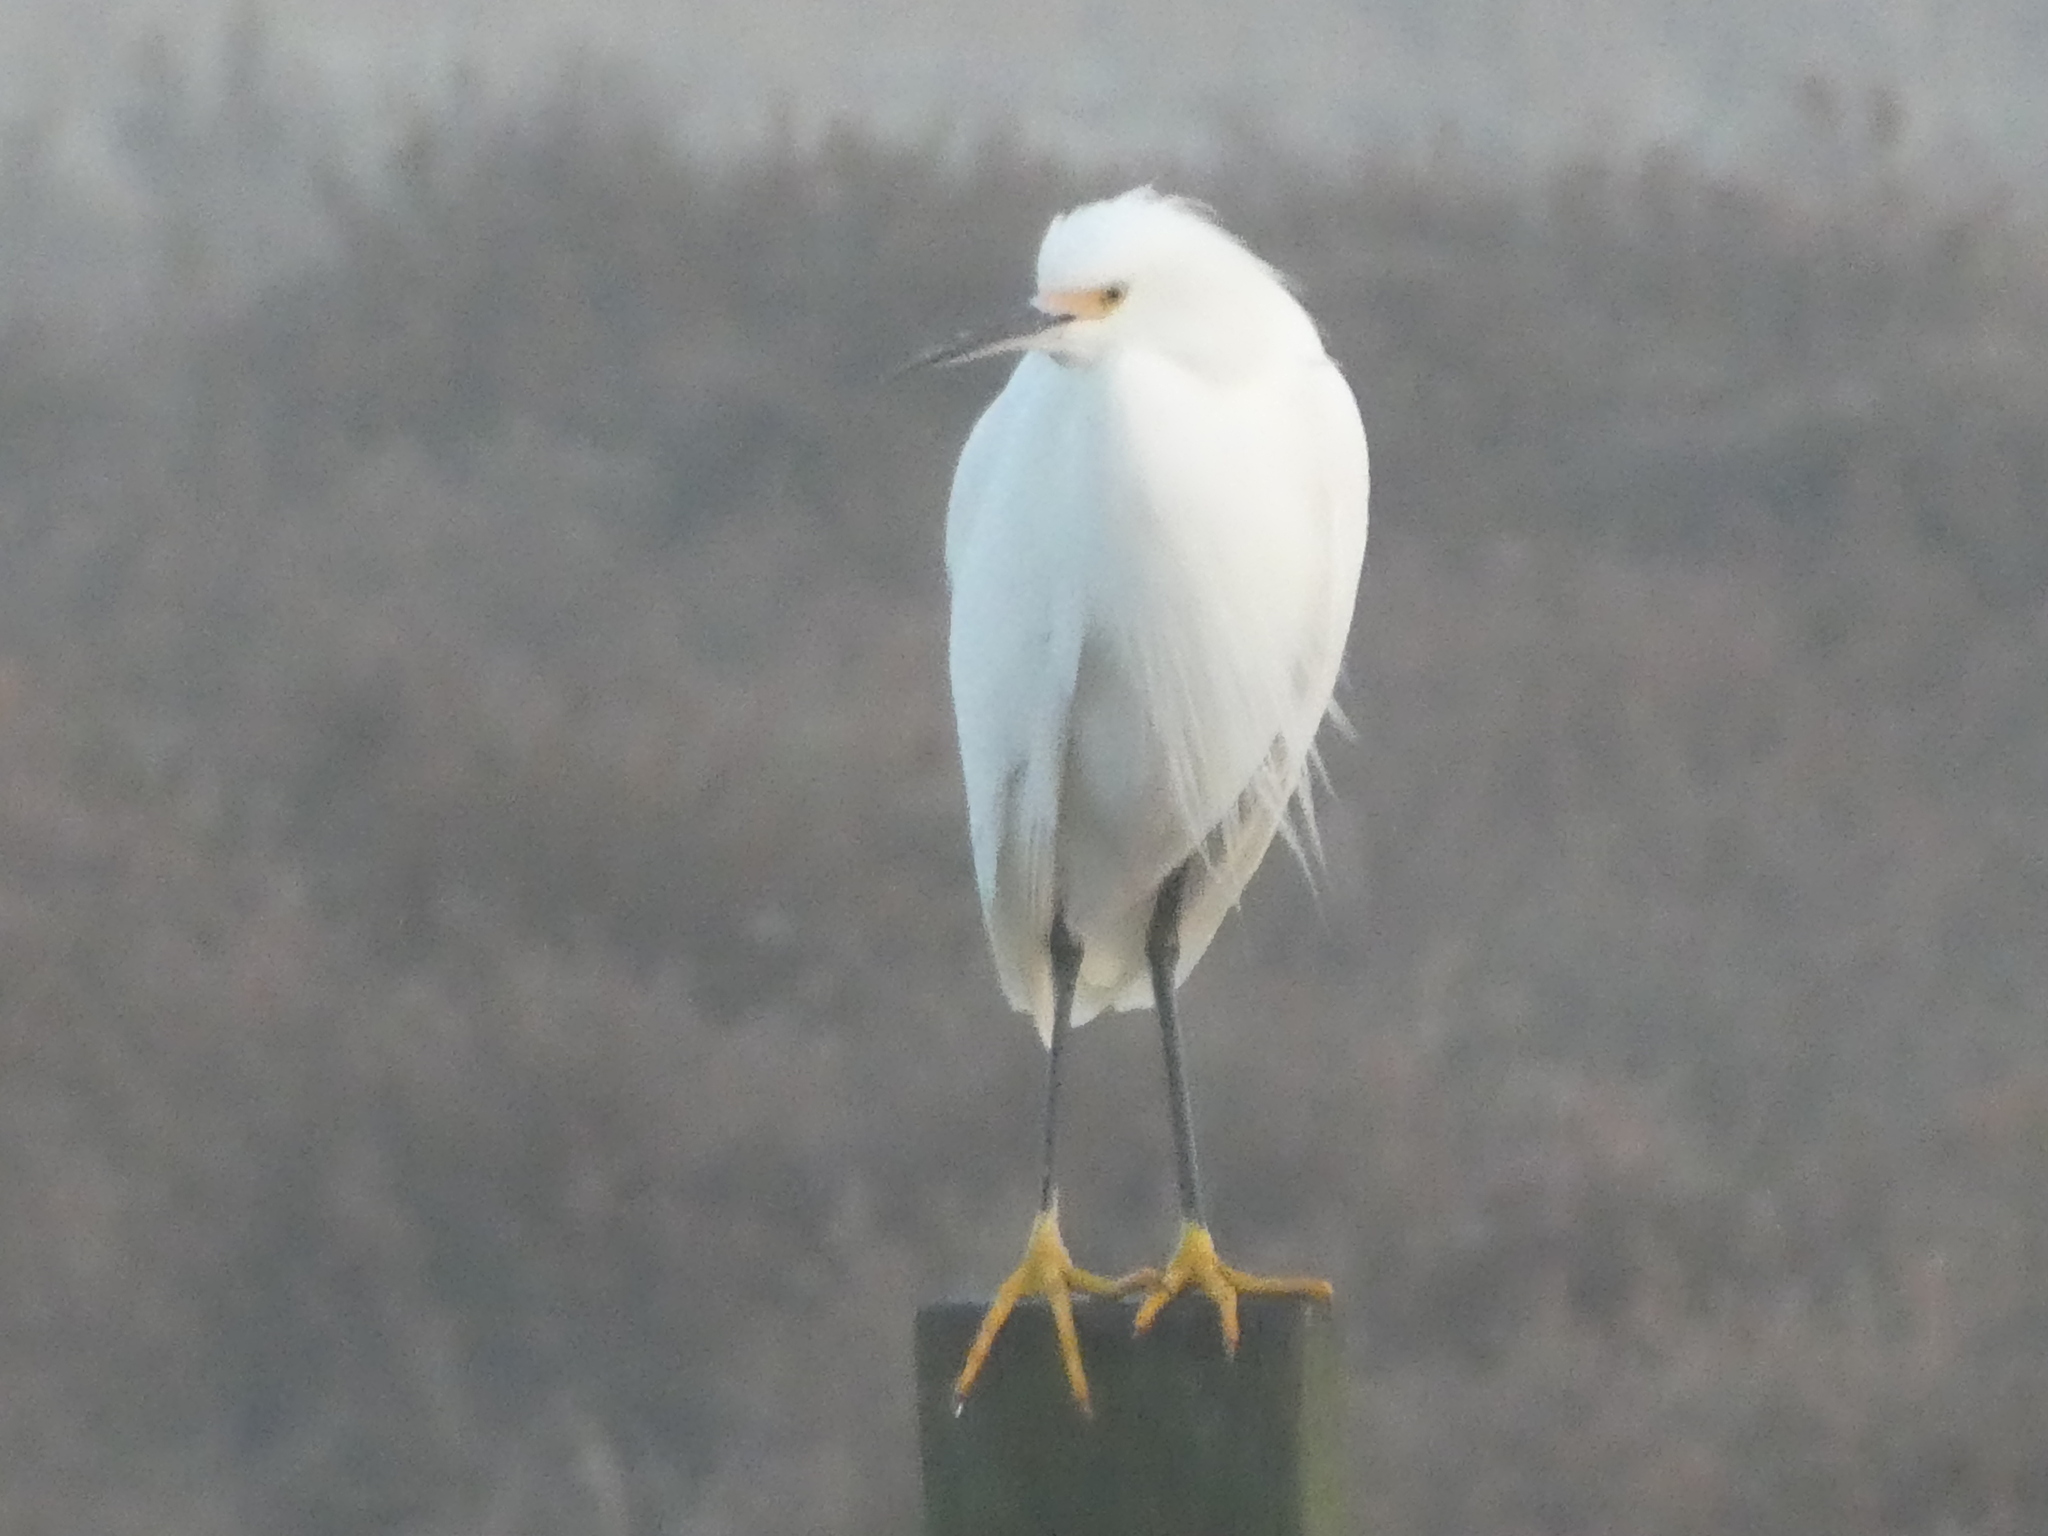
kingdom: Animalia
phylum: Chordata
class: Aves
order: Pelecaniformes
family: Ardeidae
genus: Egretta
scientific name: Egretta thula
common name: Snowy egret
